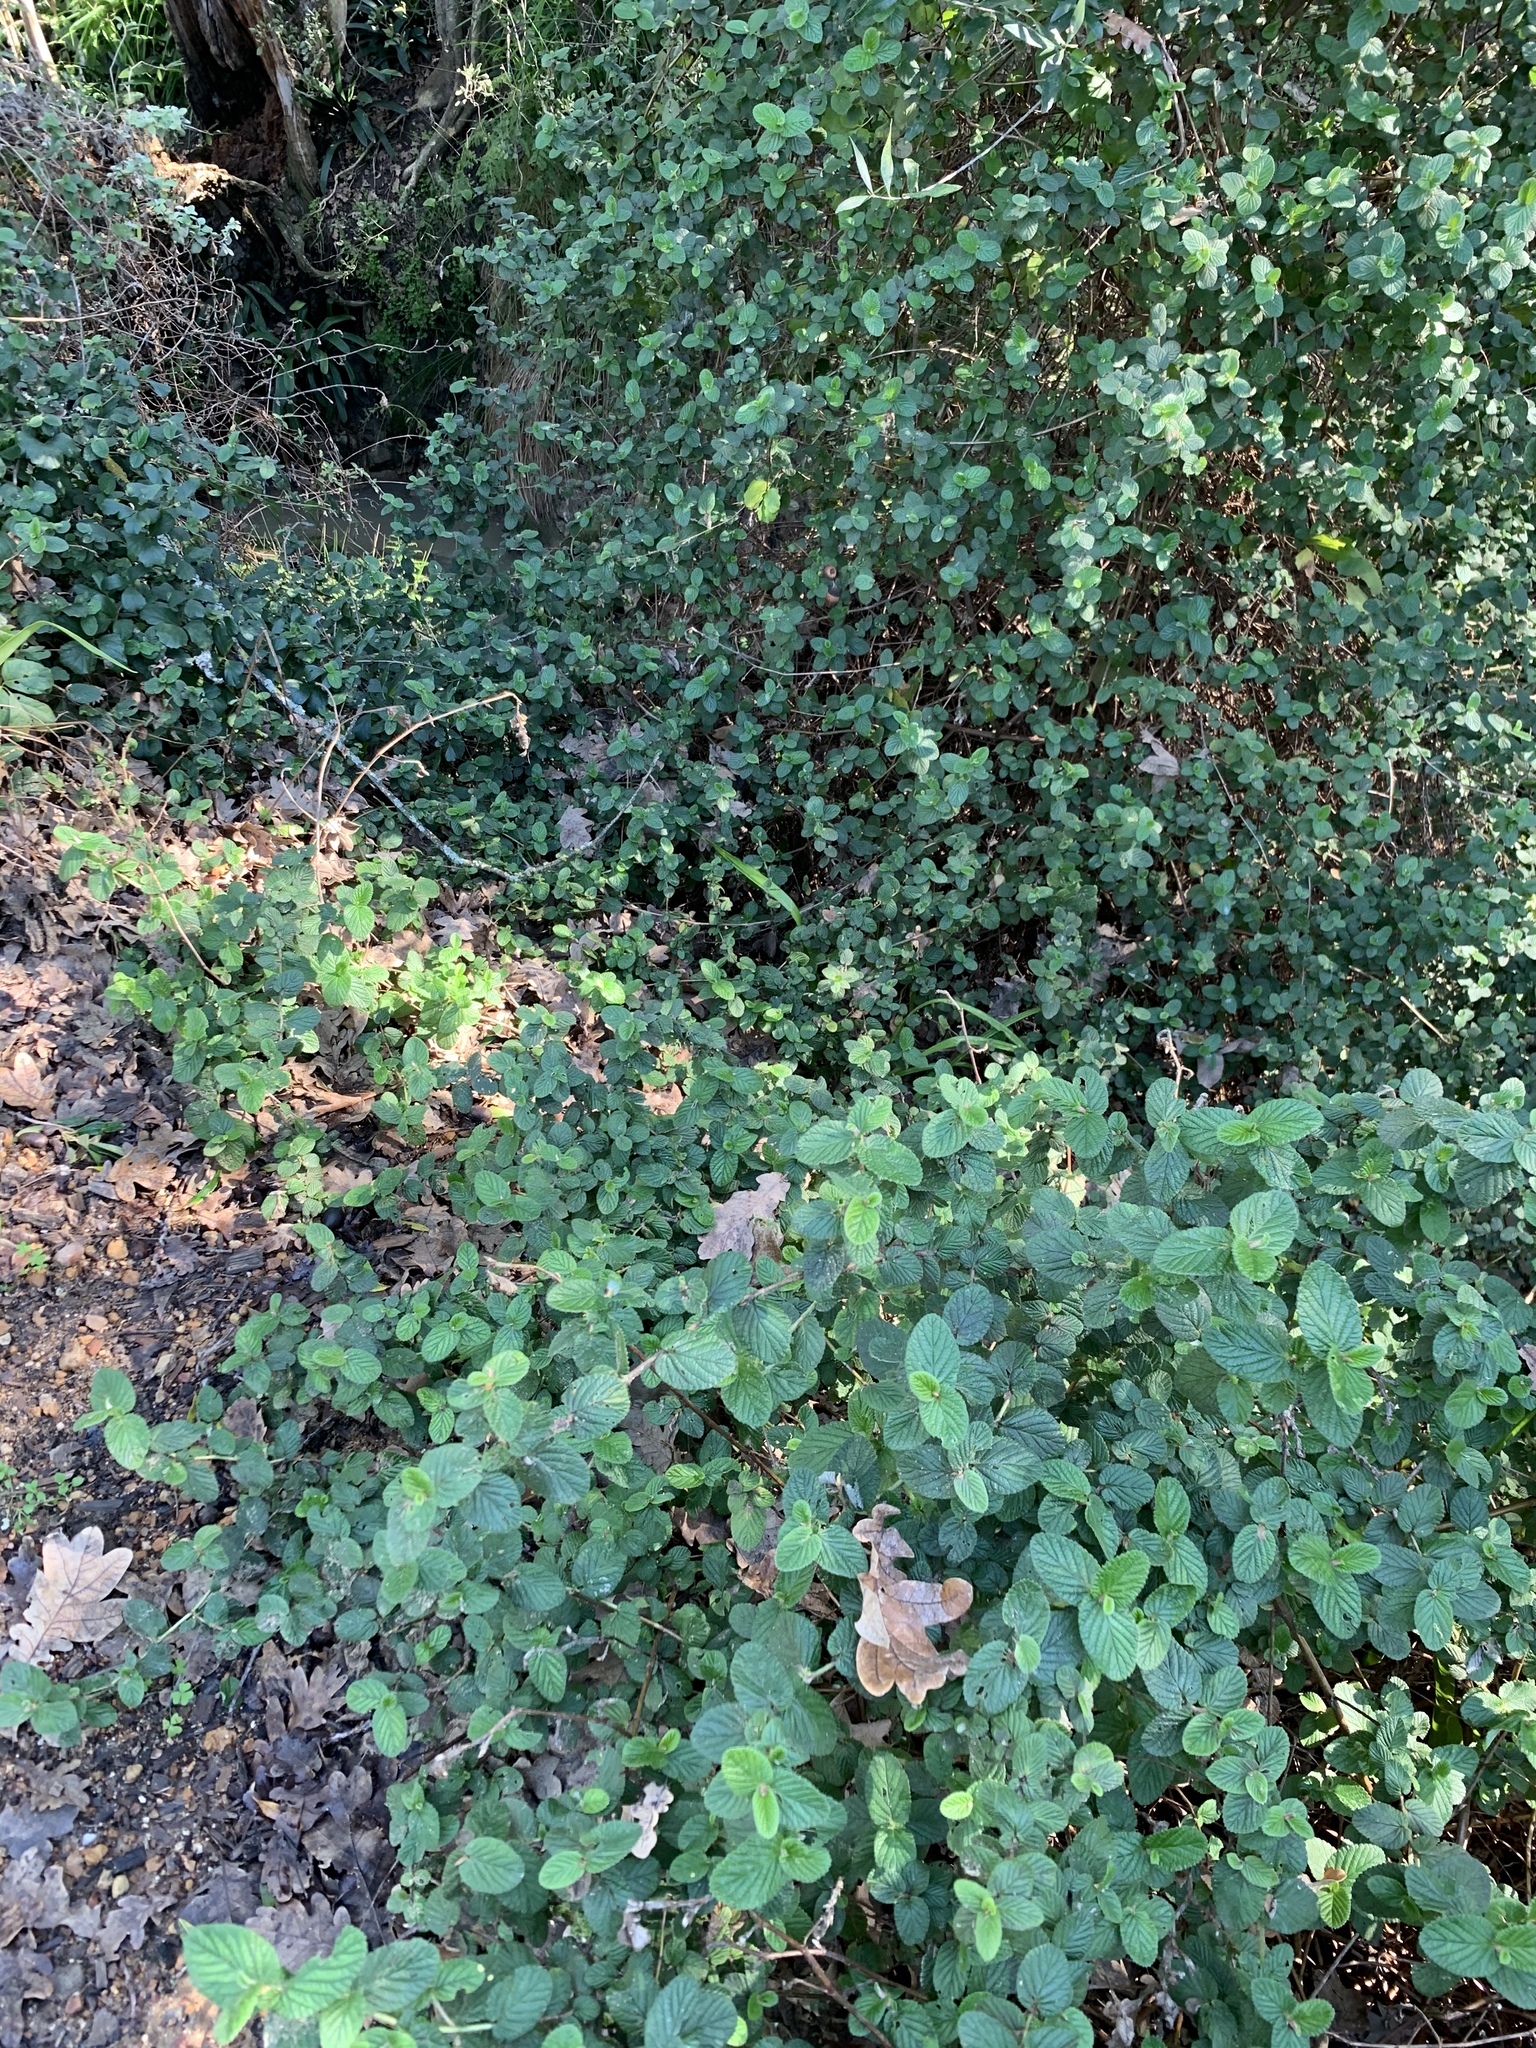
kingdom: Plantae
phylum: Tracheophyta
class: Magnoliopsida
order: Rosales
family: Rosaceae
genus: Cliffortia
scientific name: Cliffortia odorata
